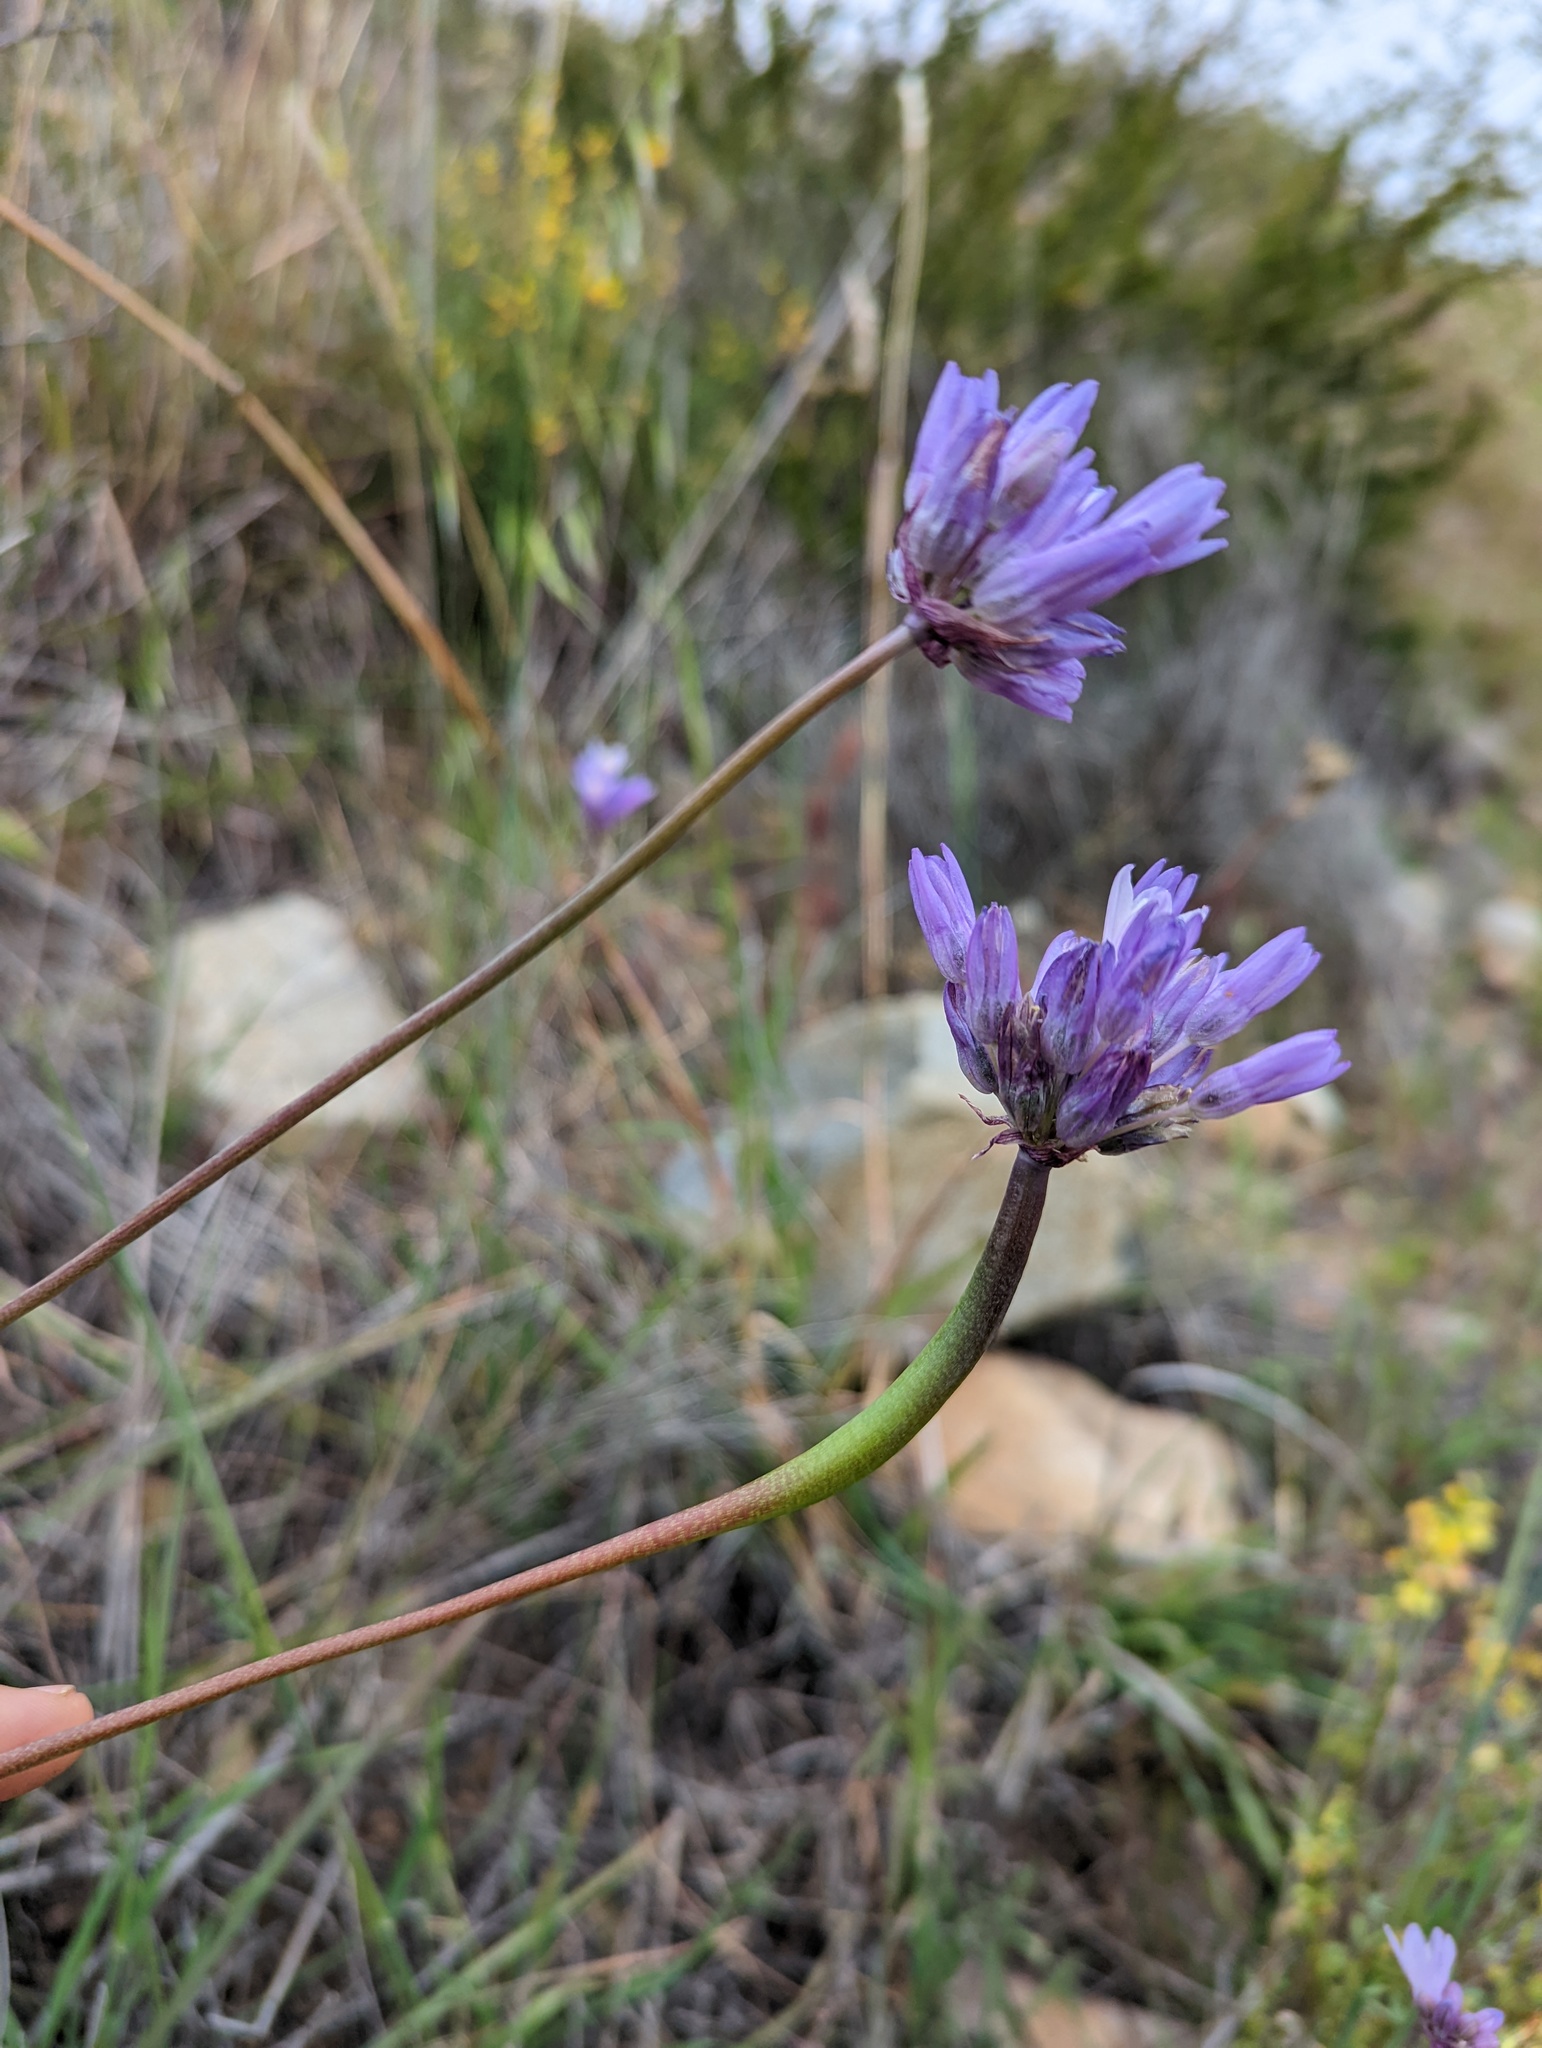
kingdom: Plantae
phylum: Tracheophyta
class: Liliopsida
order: Asparagales
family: Asparagaceae
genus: Dipterostemon
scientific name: Dipterostemon capitatus
